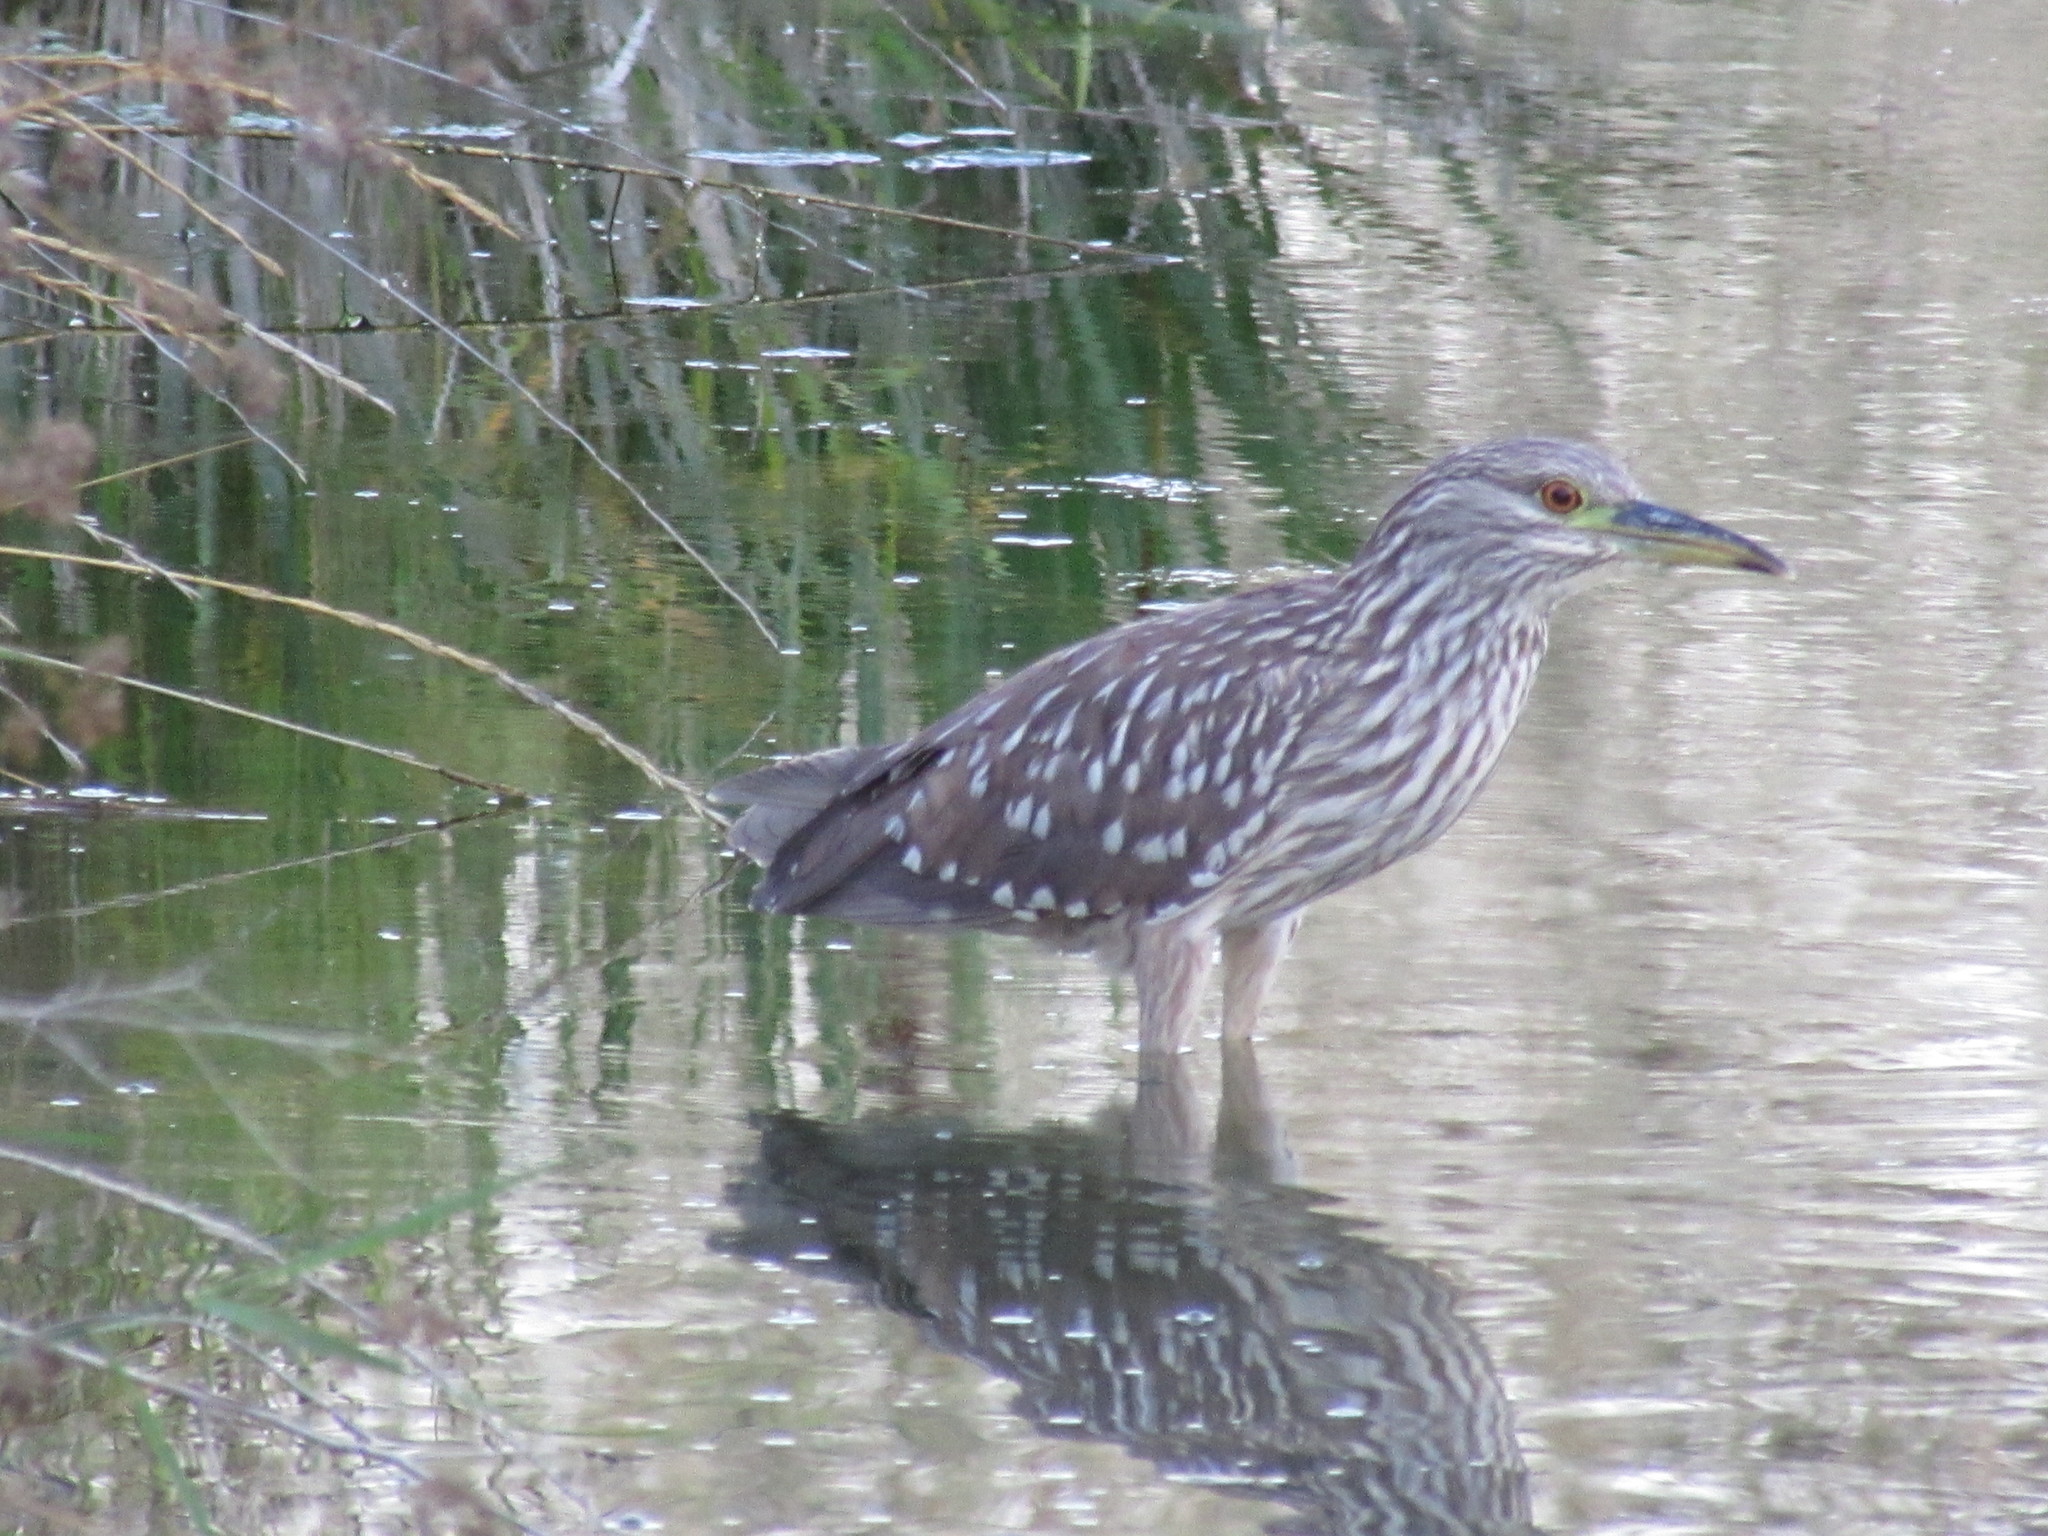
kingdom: Animalia
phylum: Chordata
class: Aves
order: Pelecaniformes
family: Ardeidae
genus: Nycticorax
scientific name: Nycticorax nycticorax
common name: Black-crowned night heron
